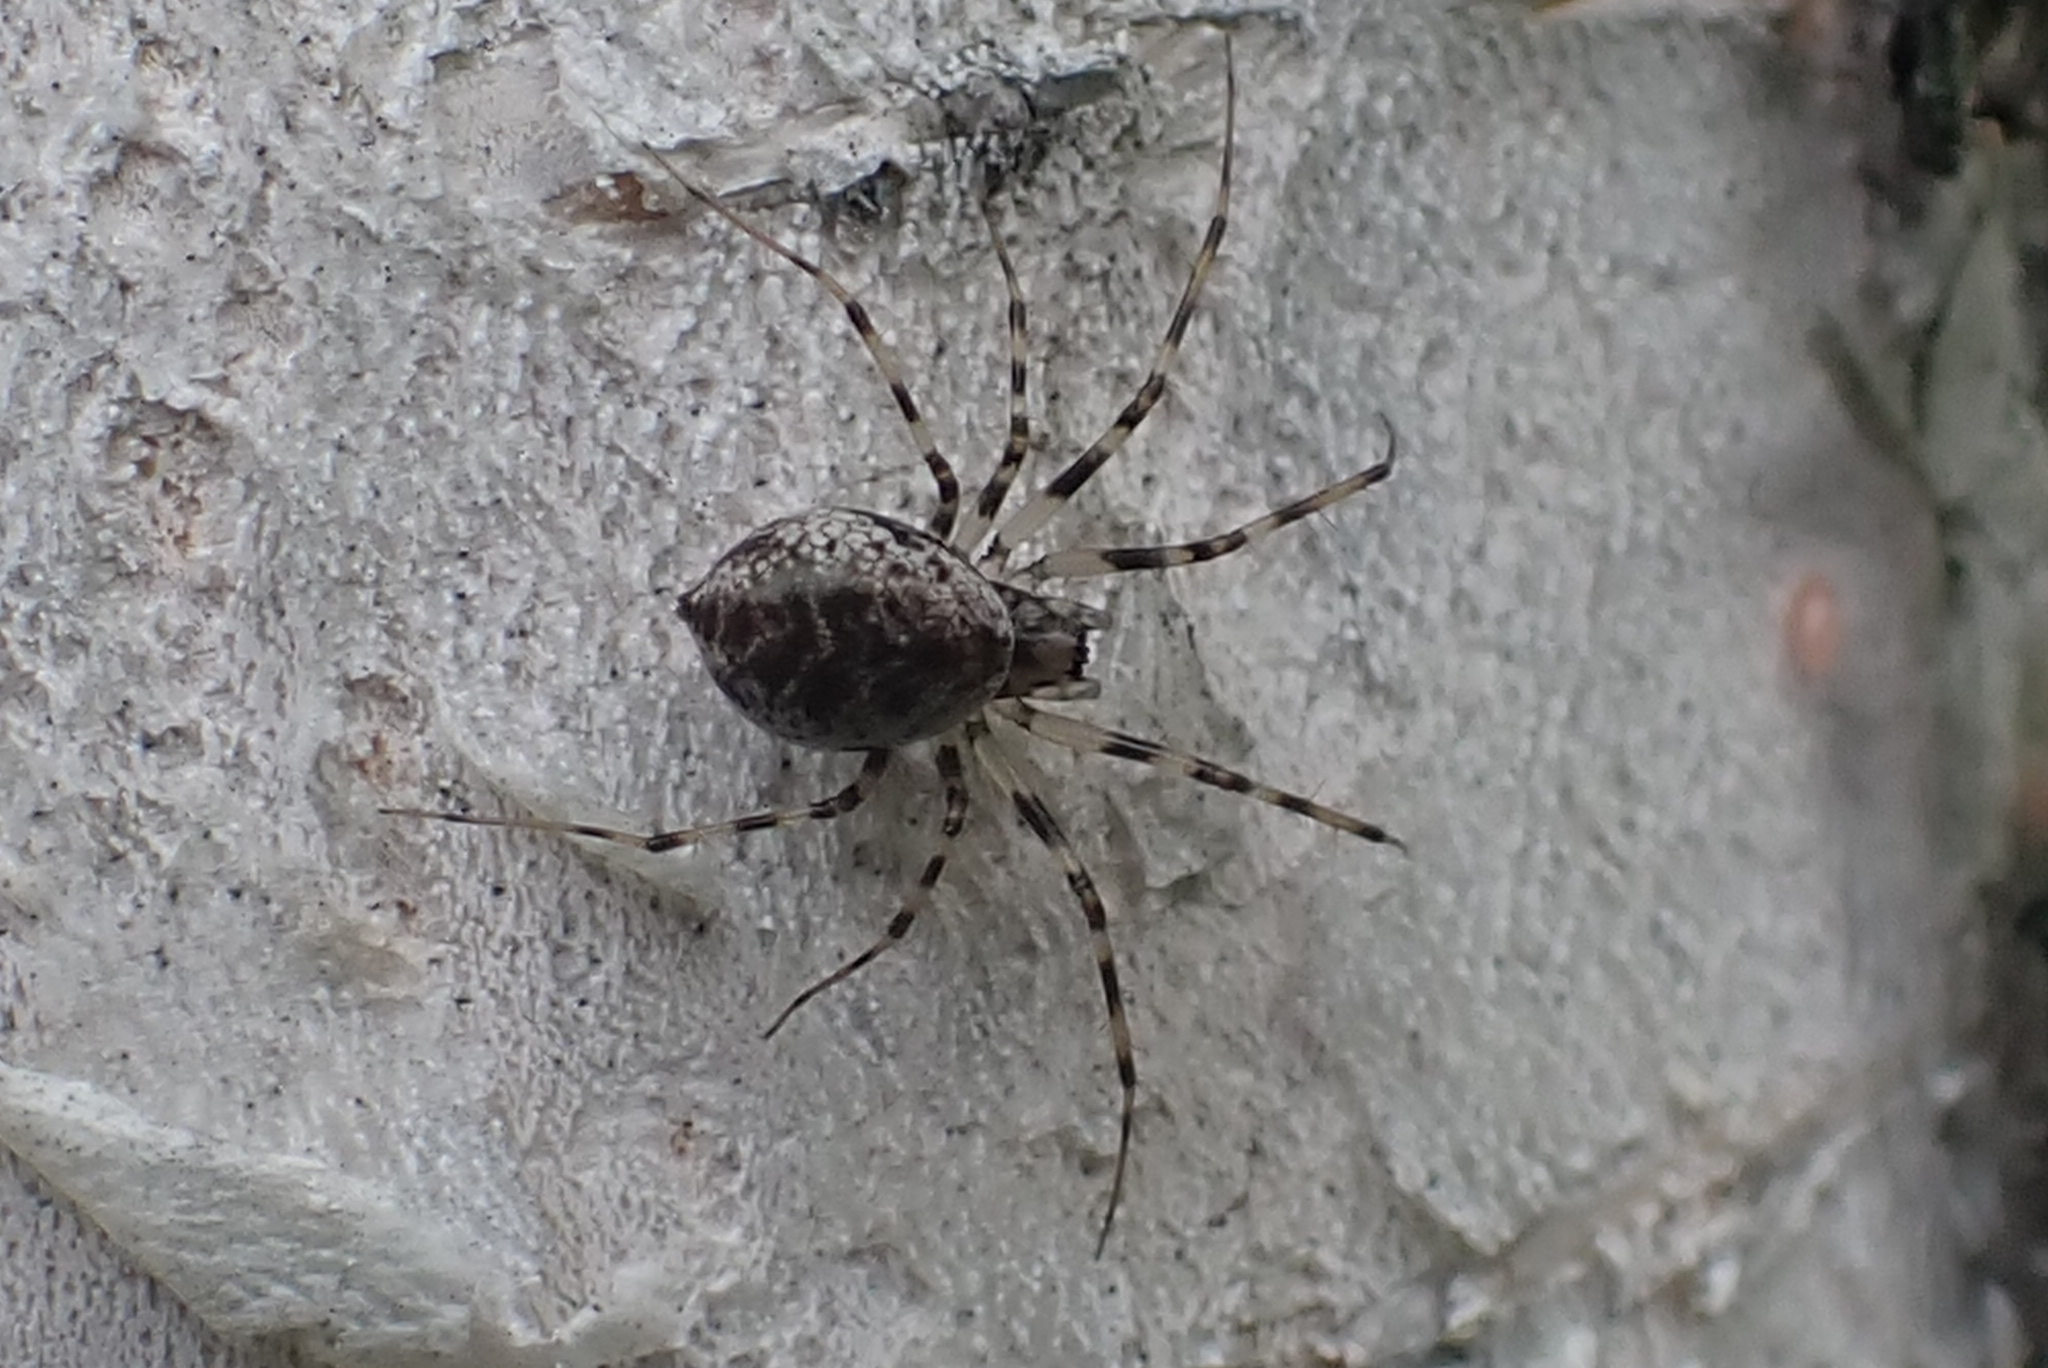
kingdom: Animalia
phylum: Arthropoda
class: Arachnida
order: Araneae
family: Linyphiidae
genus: Drapetisca
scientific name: Drapetisca socialis
